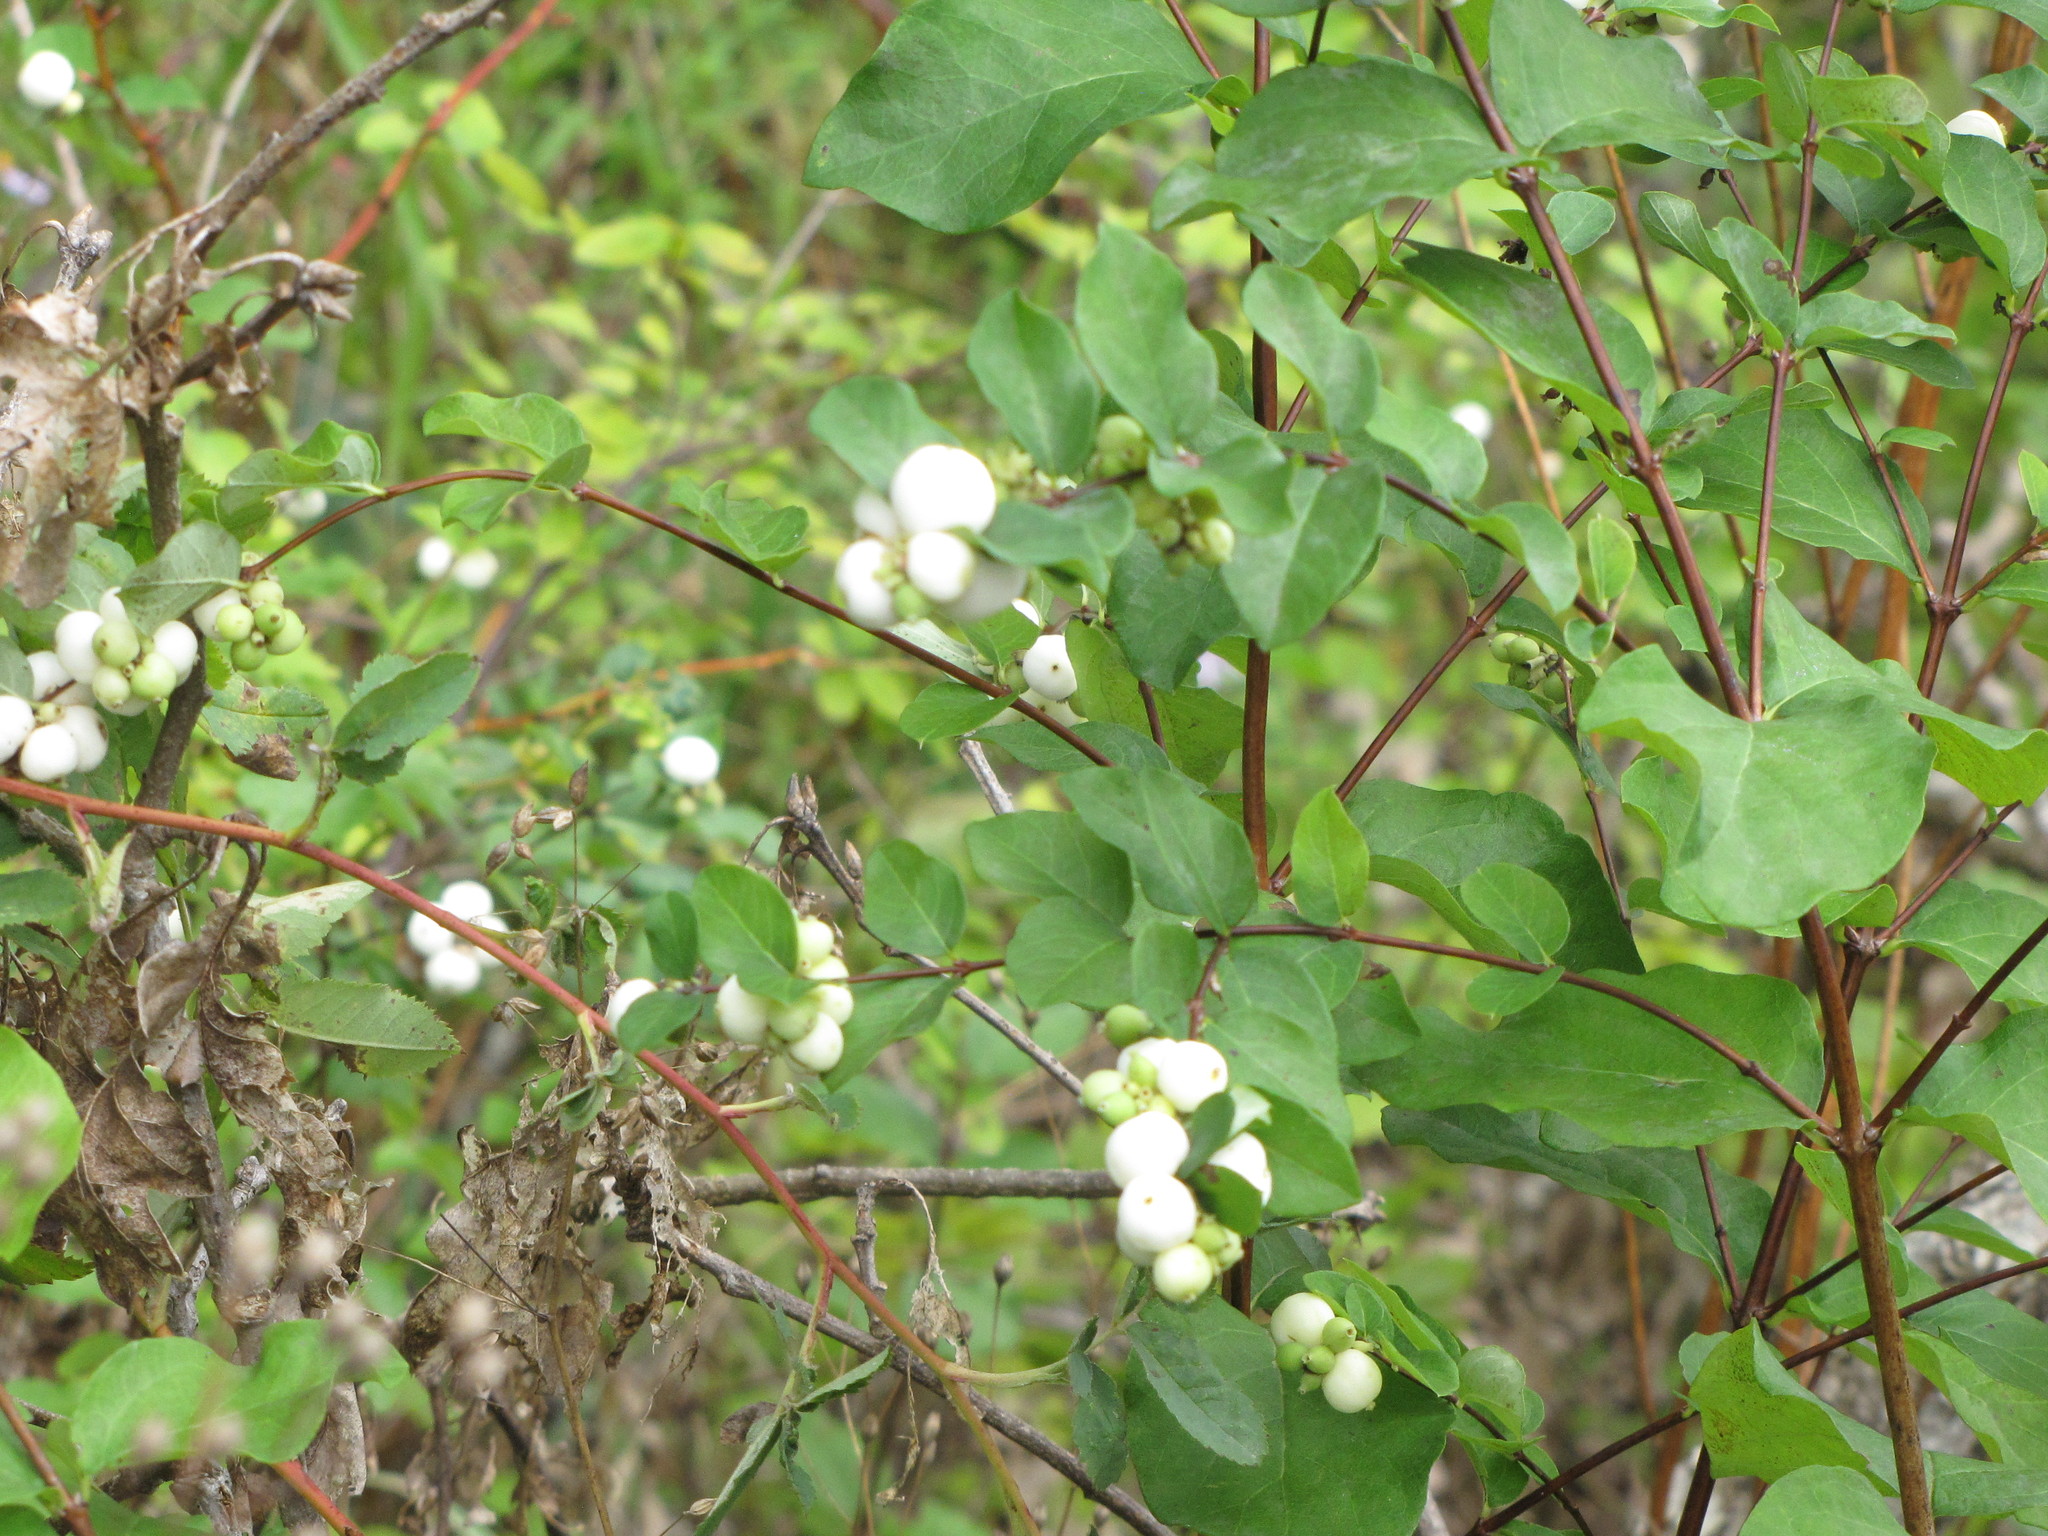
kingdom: Plantae
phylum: Tracheophyta
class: Magnoliopsida
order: Dipsacales
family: Caprifoliaceae
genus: Symphoricarpos
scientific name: Symphoricarpos albus
